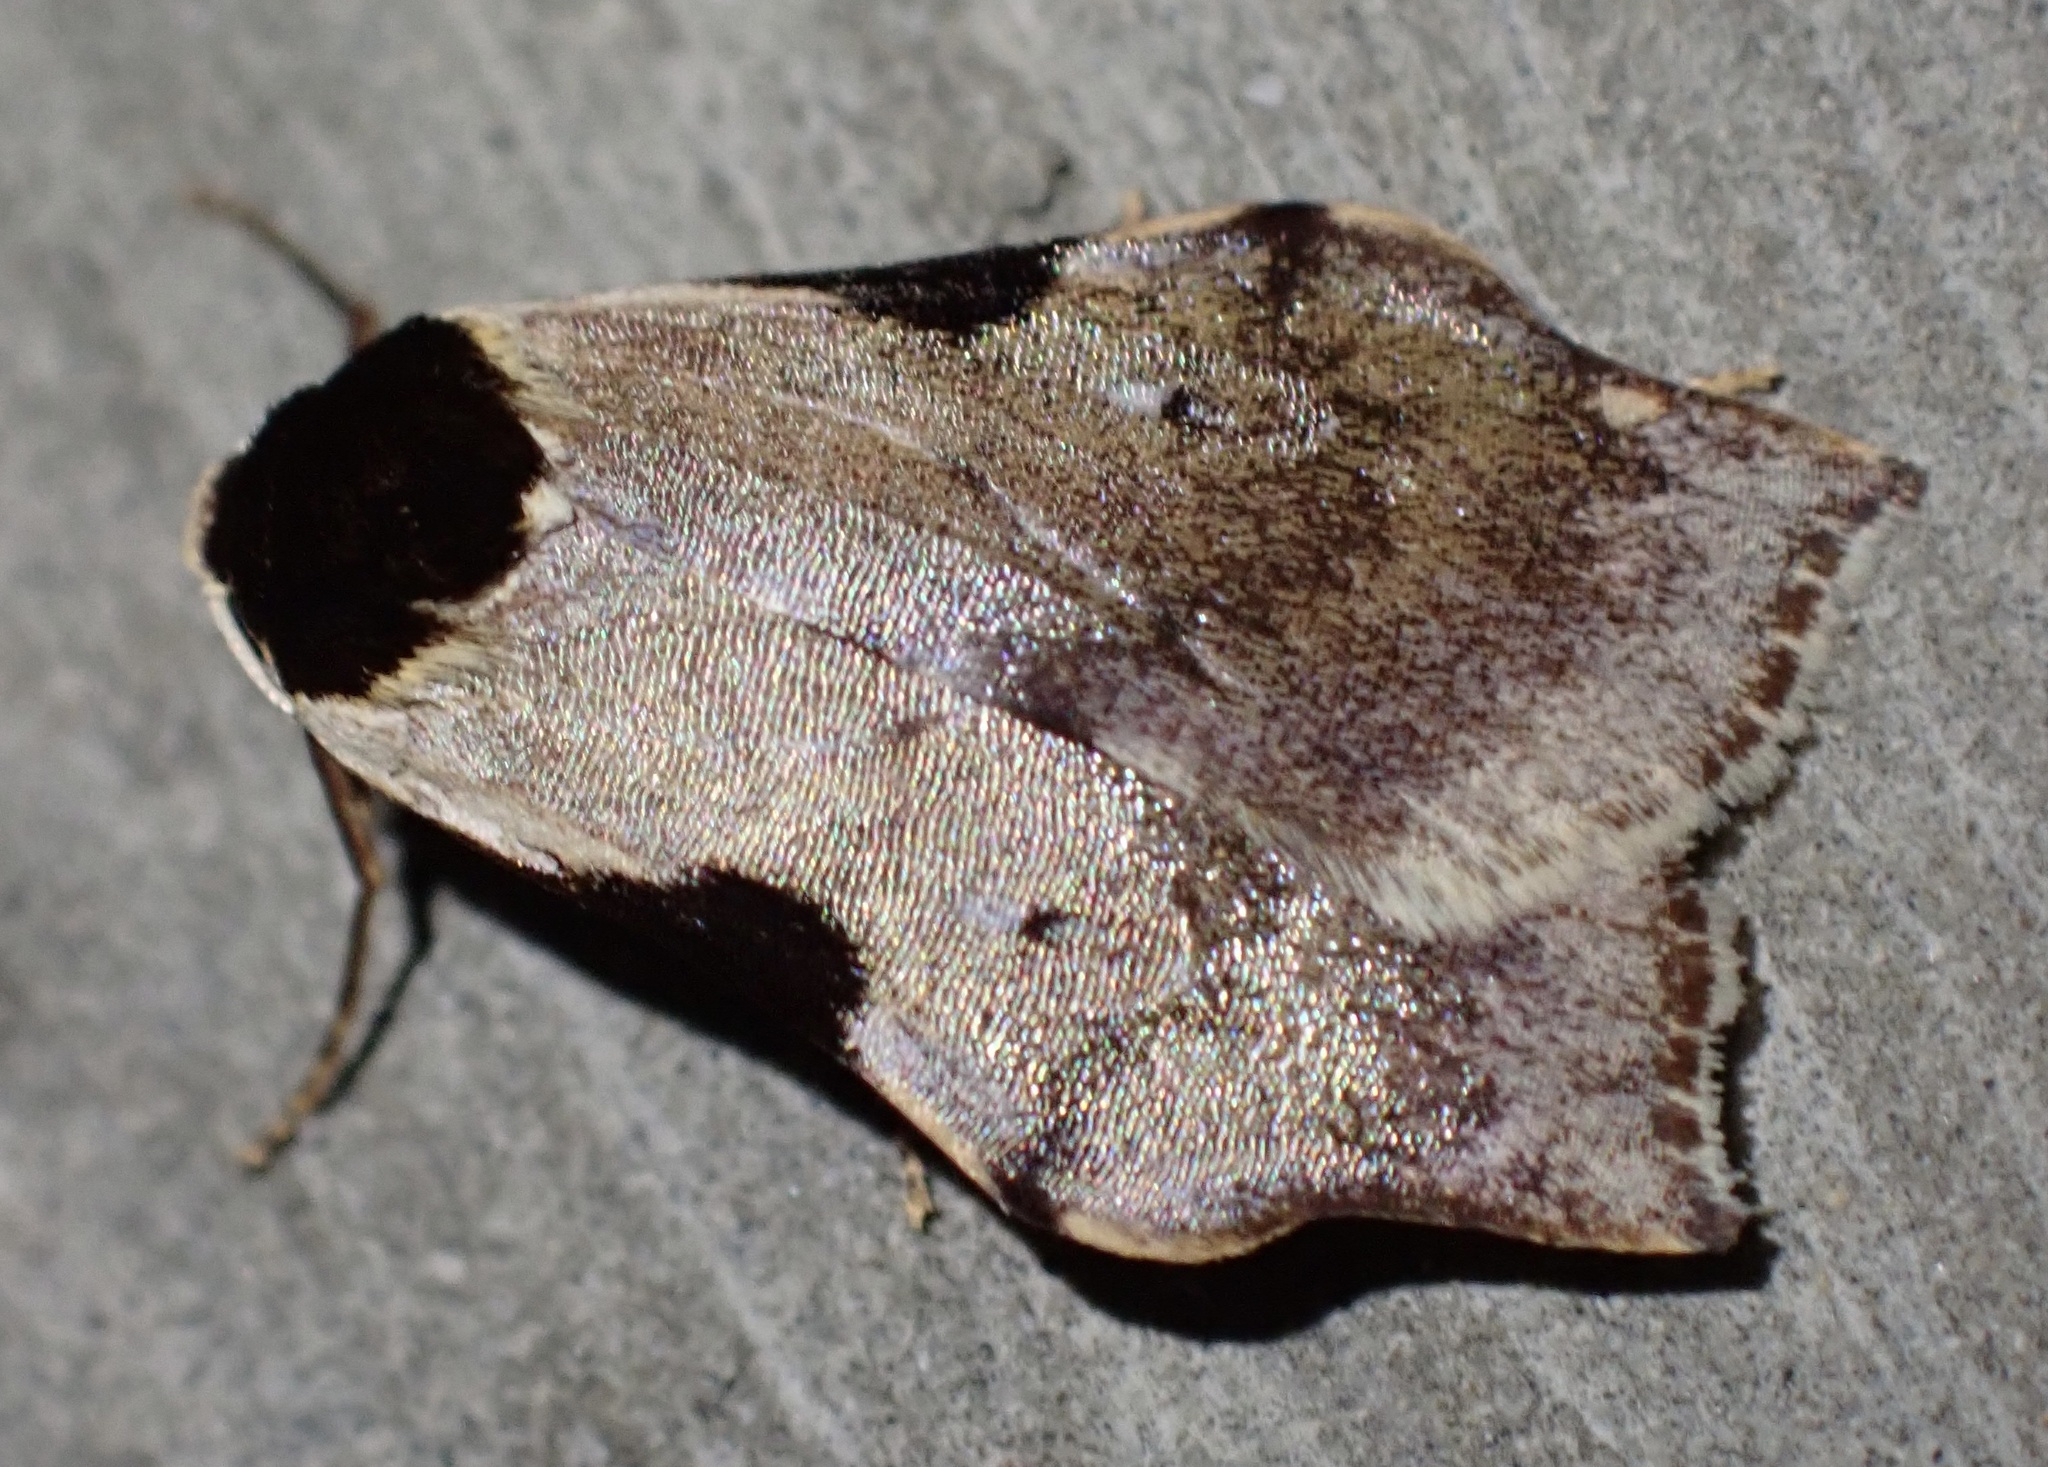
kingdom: Animalia
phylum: Arthropoda
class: Insecta
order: Lepidoptera
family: Erebidae
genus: Macaduma
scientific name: Macaduma costimacula
